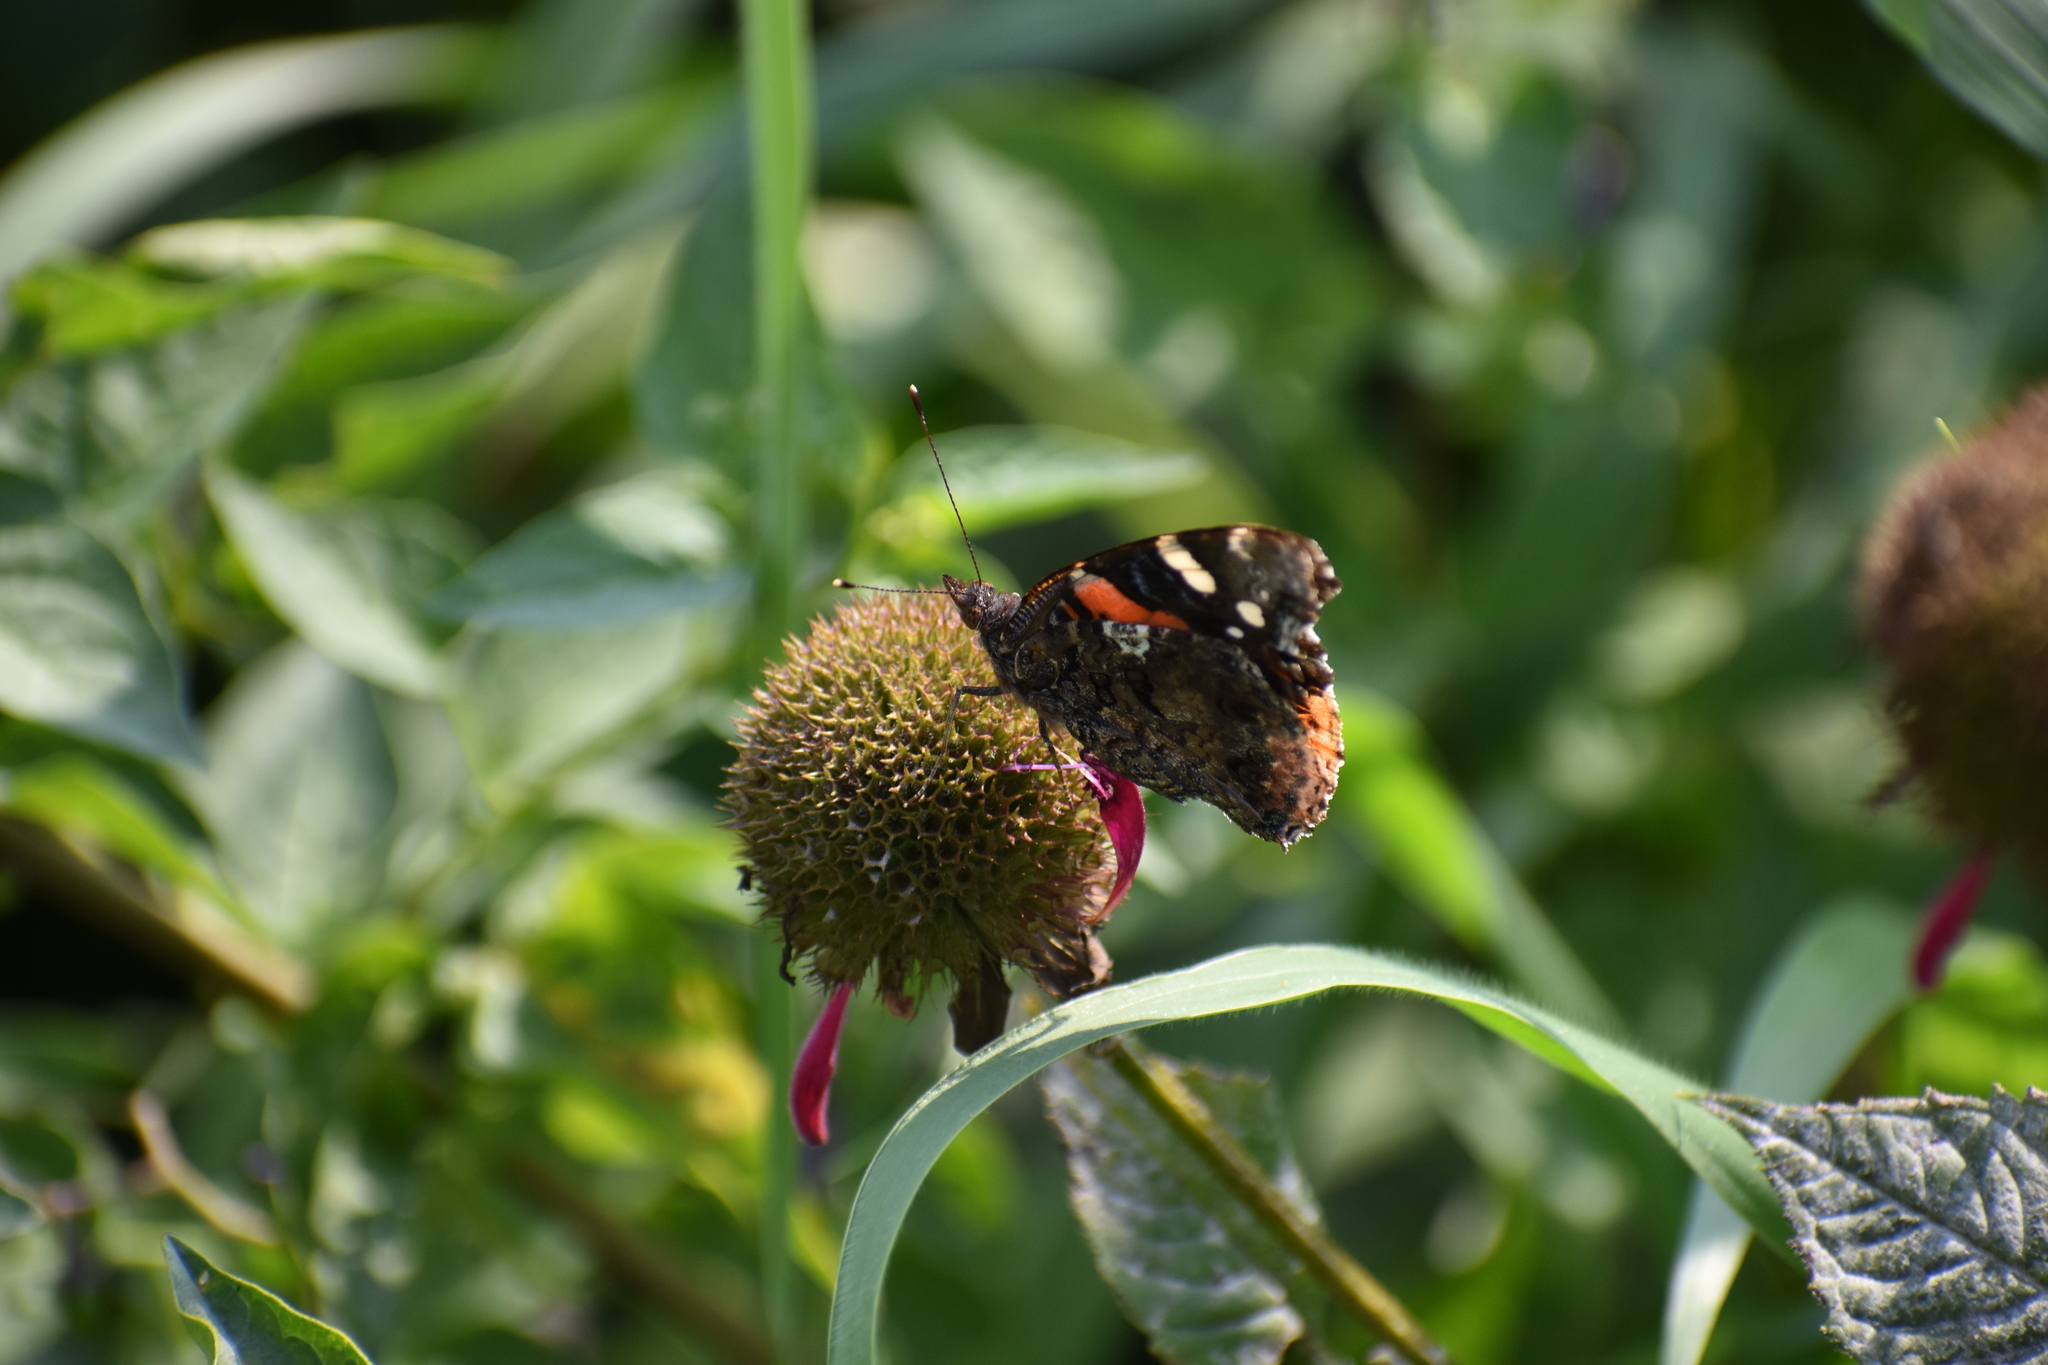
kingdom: Animalia
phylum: Arthropoda
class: Insecta
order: Lepidoptera
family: Nymphalidae
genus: Vanessa
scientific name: Vanessa atalanta
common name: Red admiral
